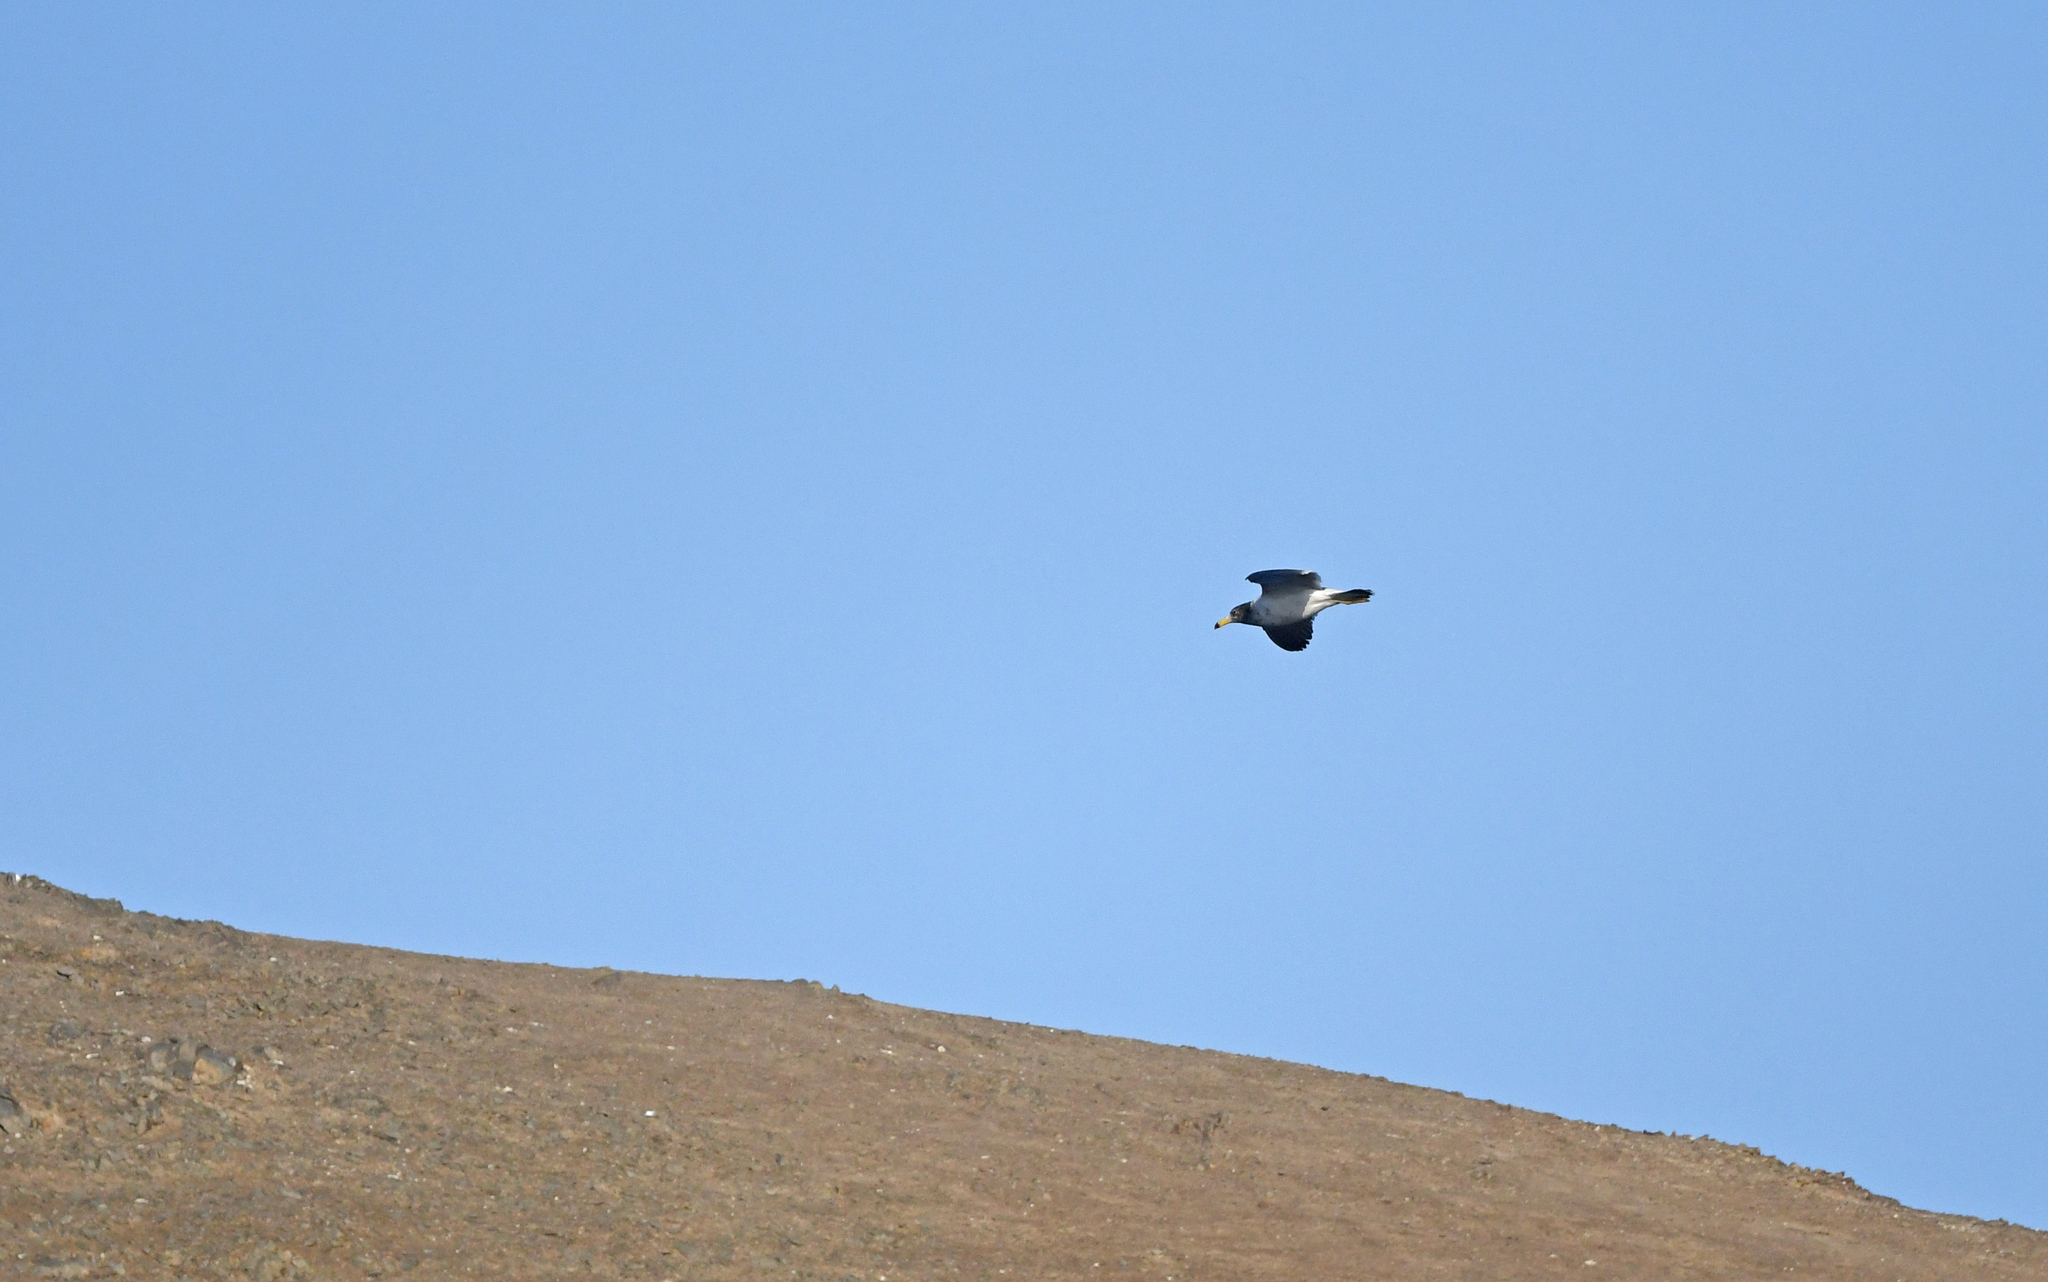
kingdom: Animalia
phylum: Chordata
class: Aves
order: Charadriiformes
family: Laridae
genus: Larus
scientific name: Larus belcheri
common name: Belcher's gull
